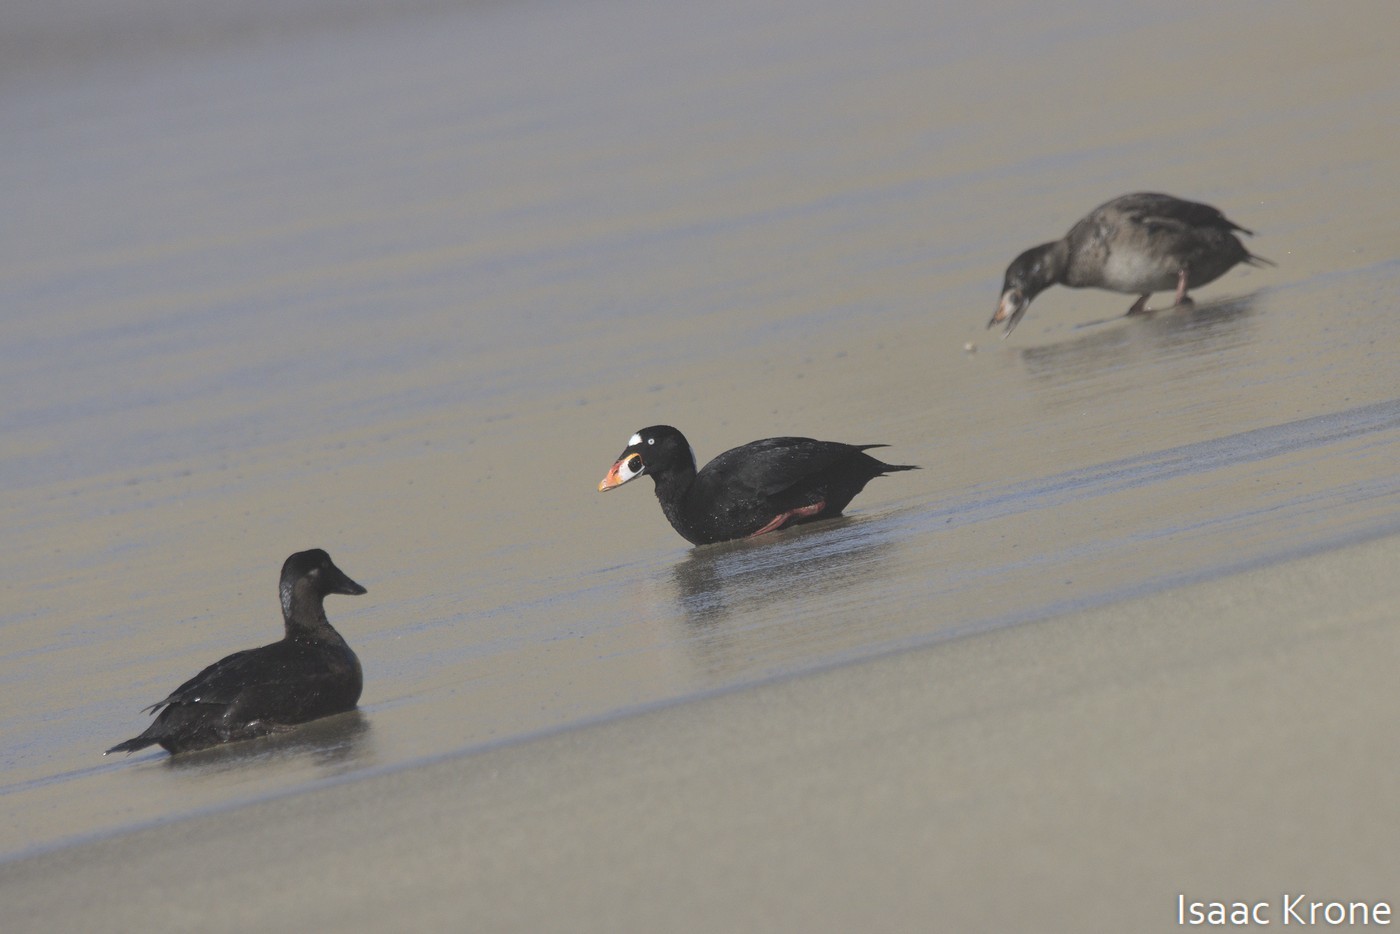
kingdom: Animalia
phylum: Chordata
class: Aves
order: Anseriformes
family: Anatidae
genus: Melanitta
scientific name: Melanitta perspicillata
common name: Surf scoter
